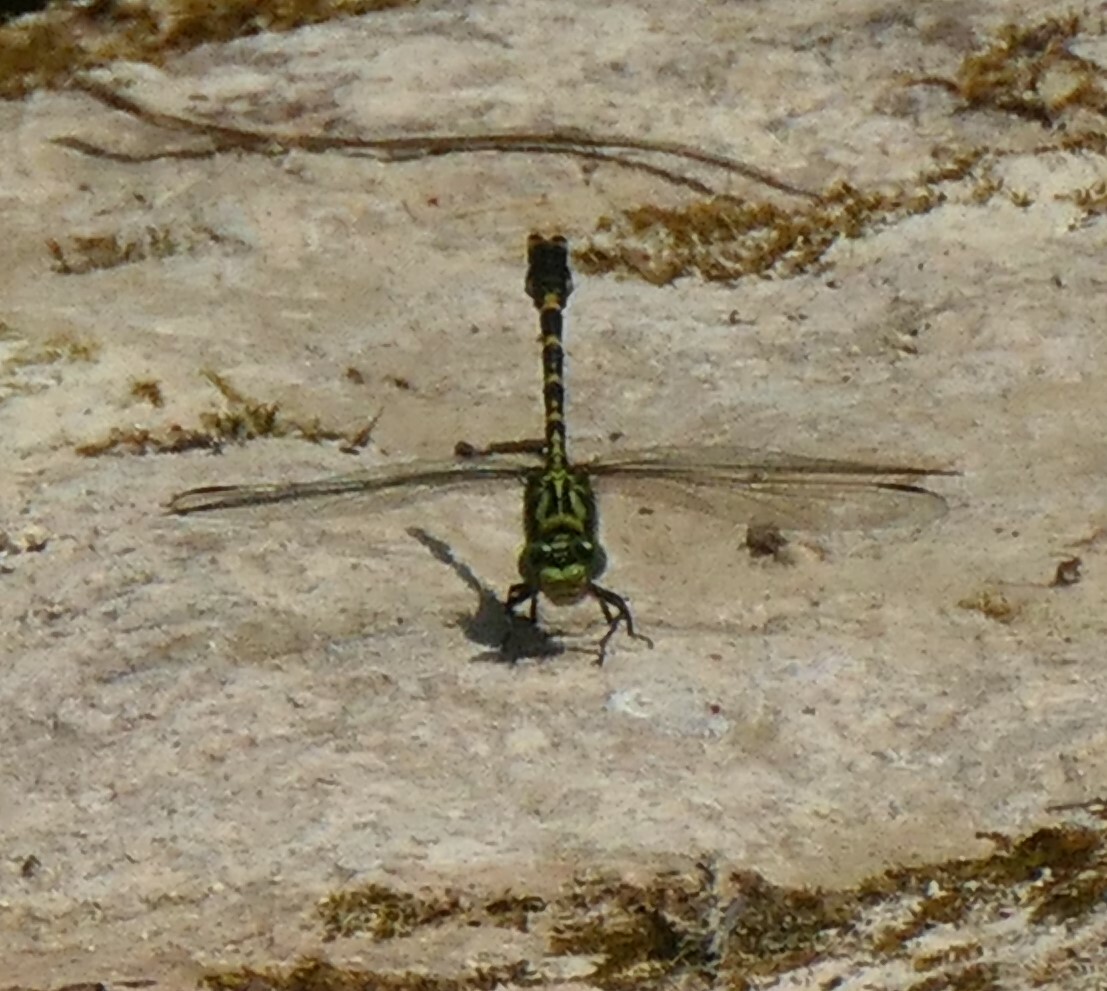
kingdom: Animalia
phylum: Arthropoda
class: Insecta
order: Odonata
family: Gomphidae
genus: Onychogomphus
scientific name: Onychogomphus forcipatus
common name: Small pincertail
